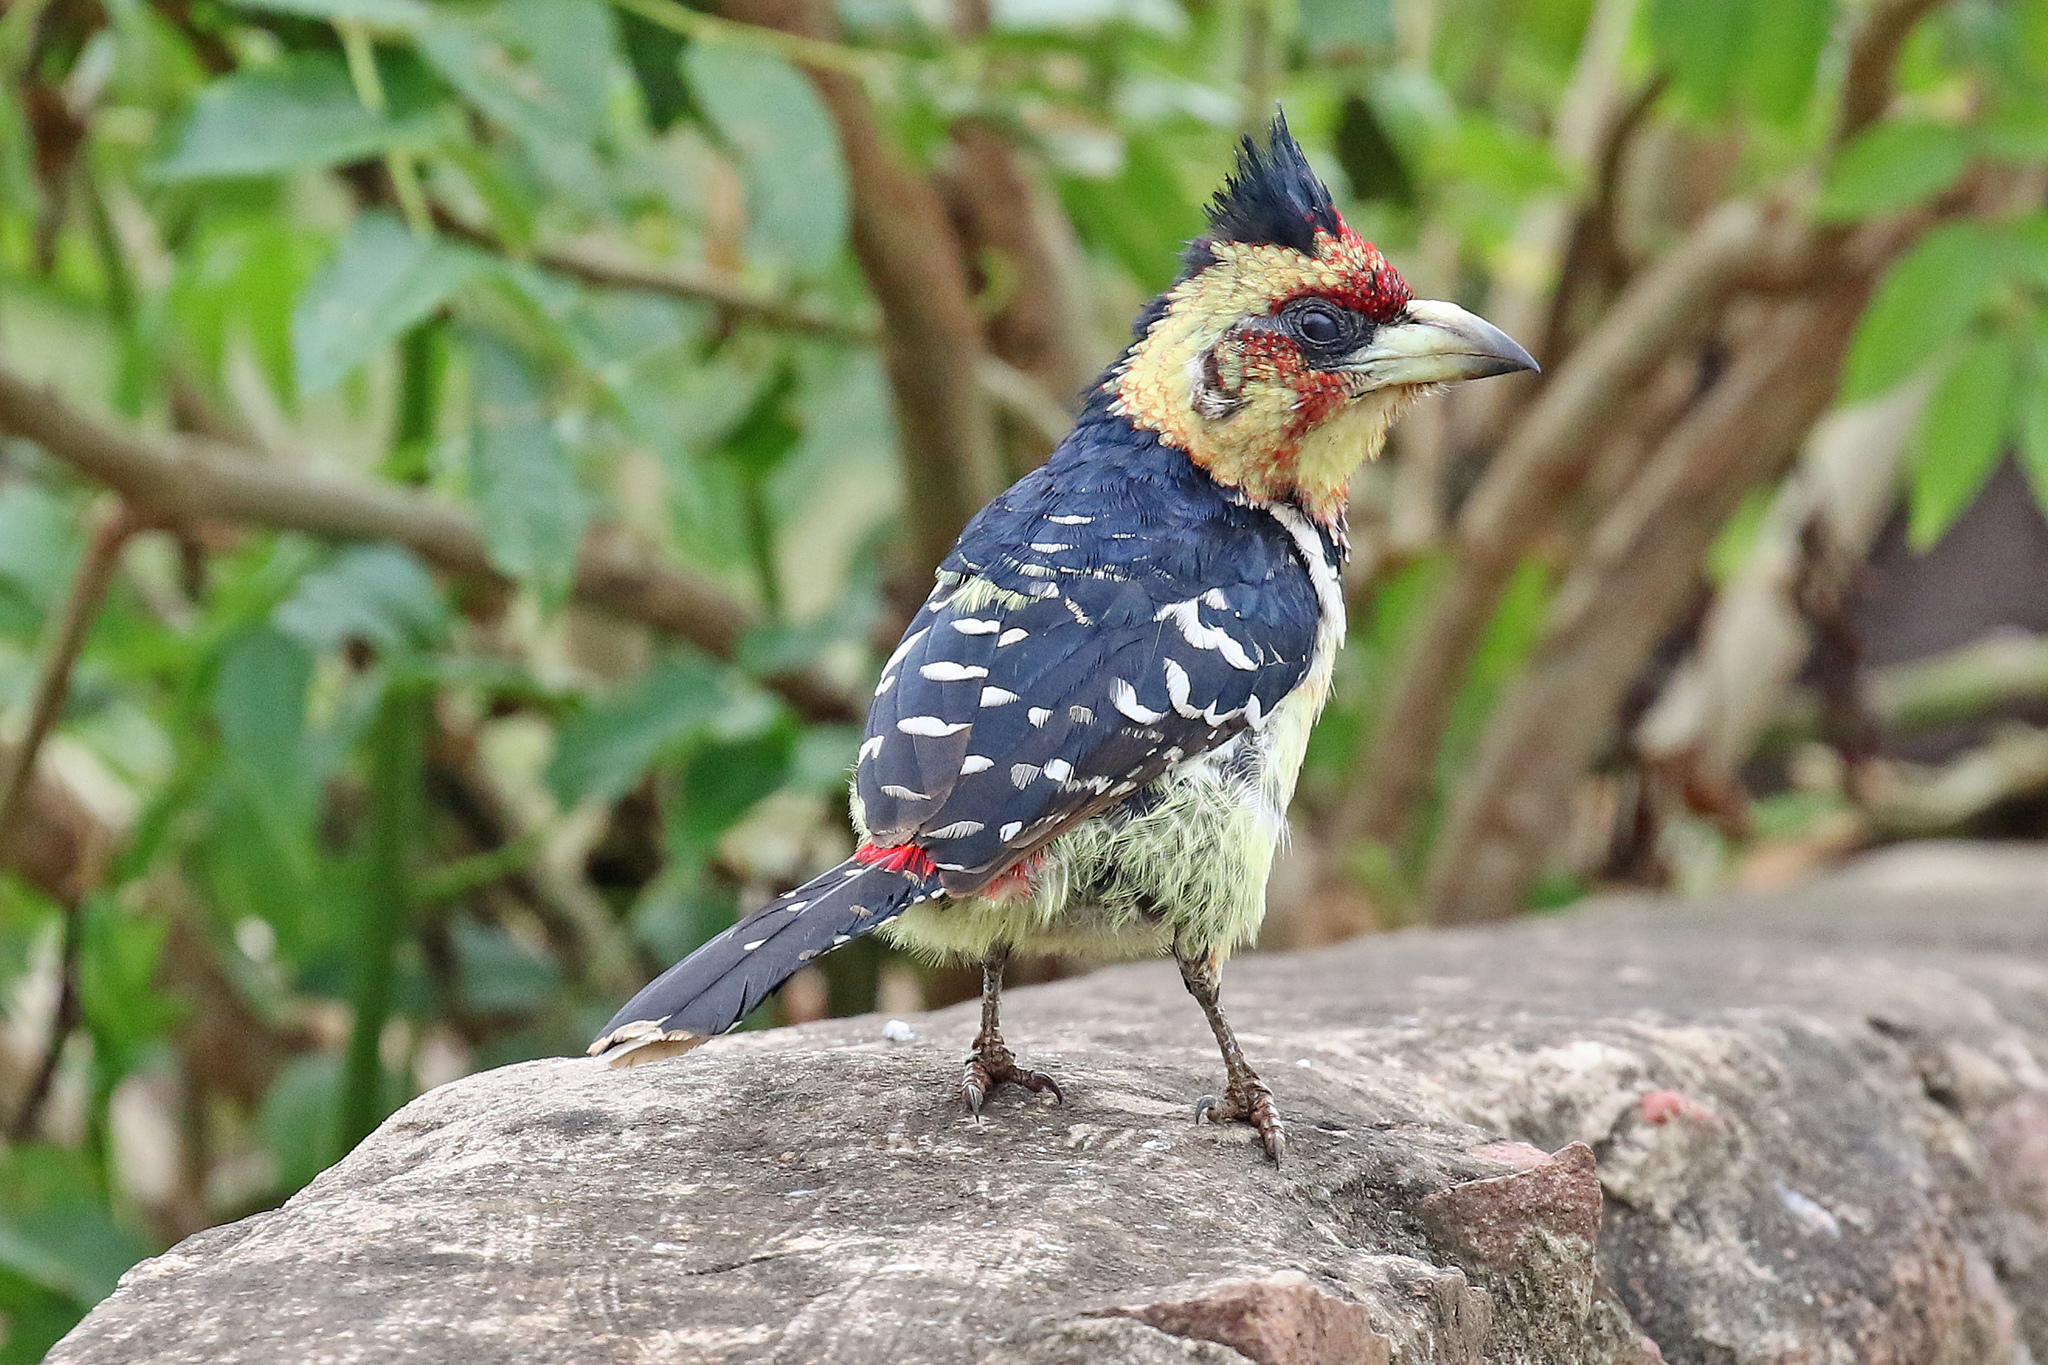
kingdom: Animalia
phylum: Chordata
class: Aves
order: Piciformes
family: Lybiidae
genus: Trachyphonus
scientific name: Trachyphonus vaillantii
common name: Crested barbet
